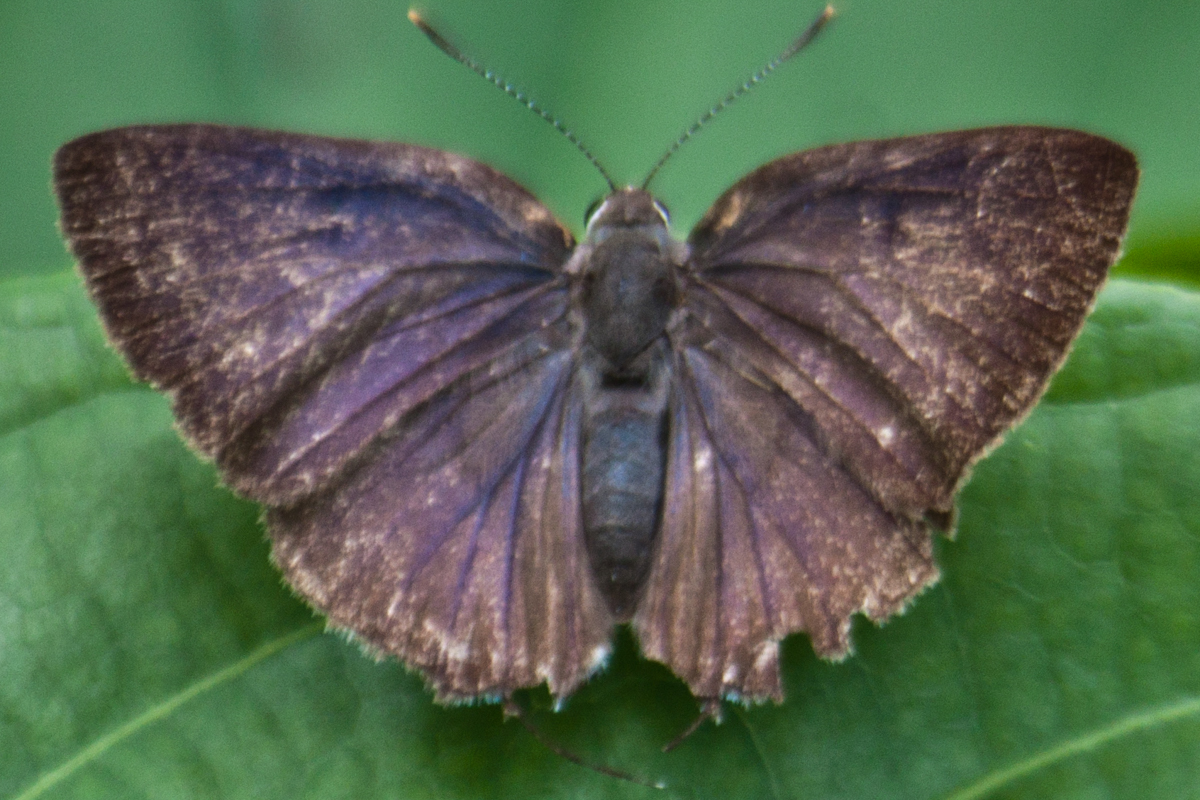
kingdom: Animalia
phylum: Arthropoda
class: Insecta
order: Lepidoptera
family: Lycaenidae
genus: Rapala
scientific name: Rapala manea
